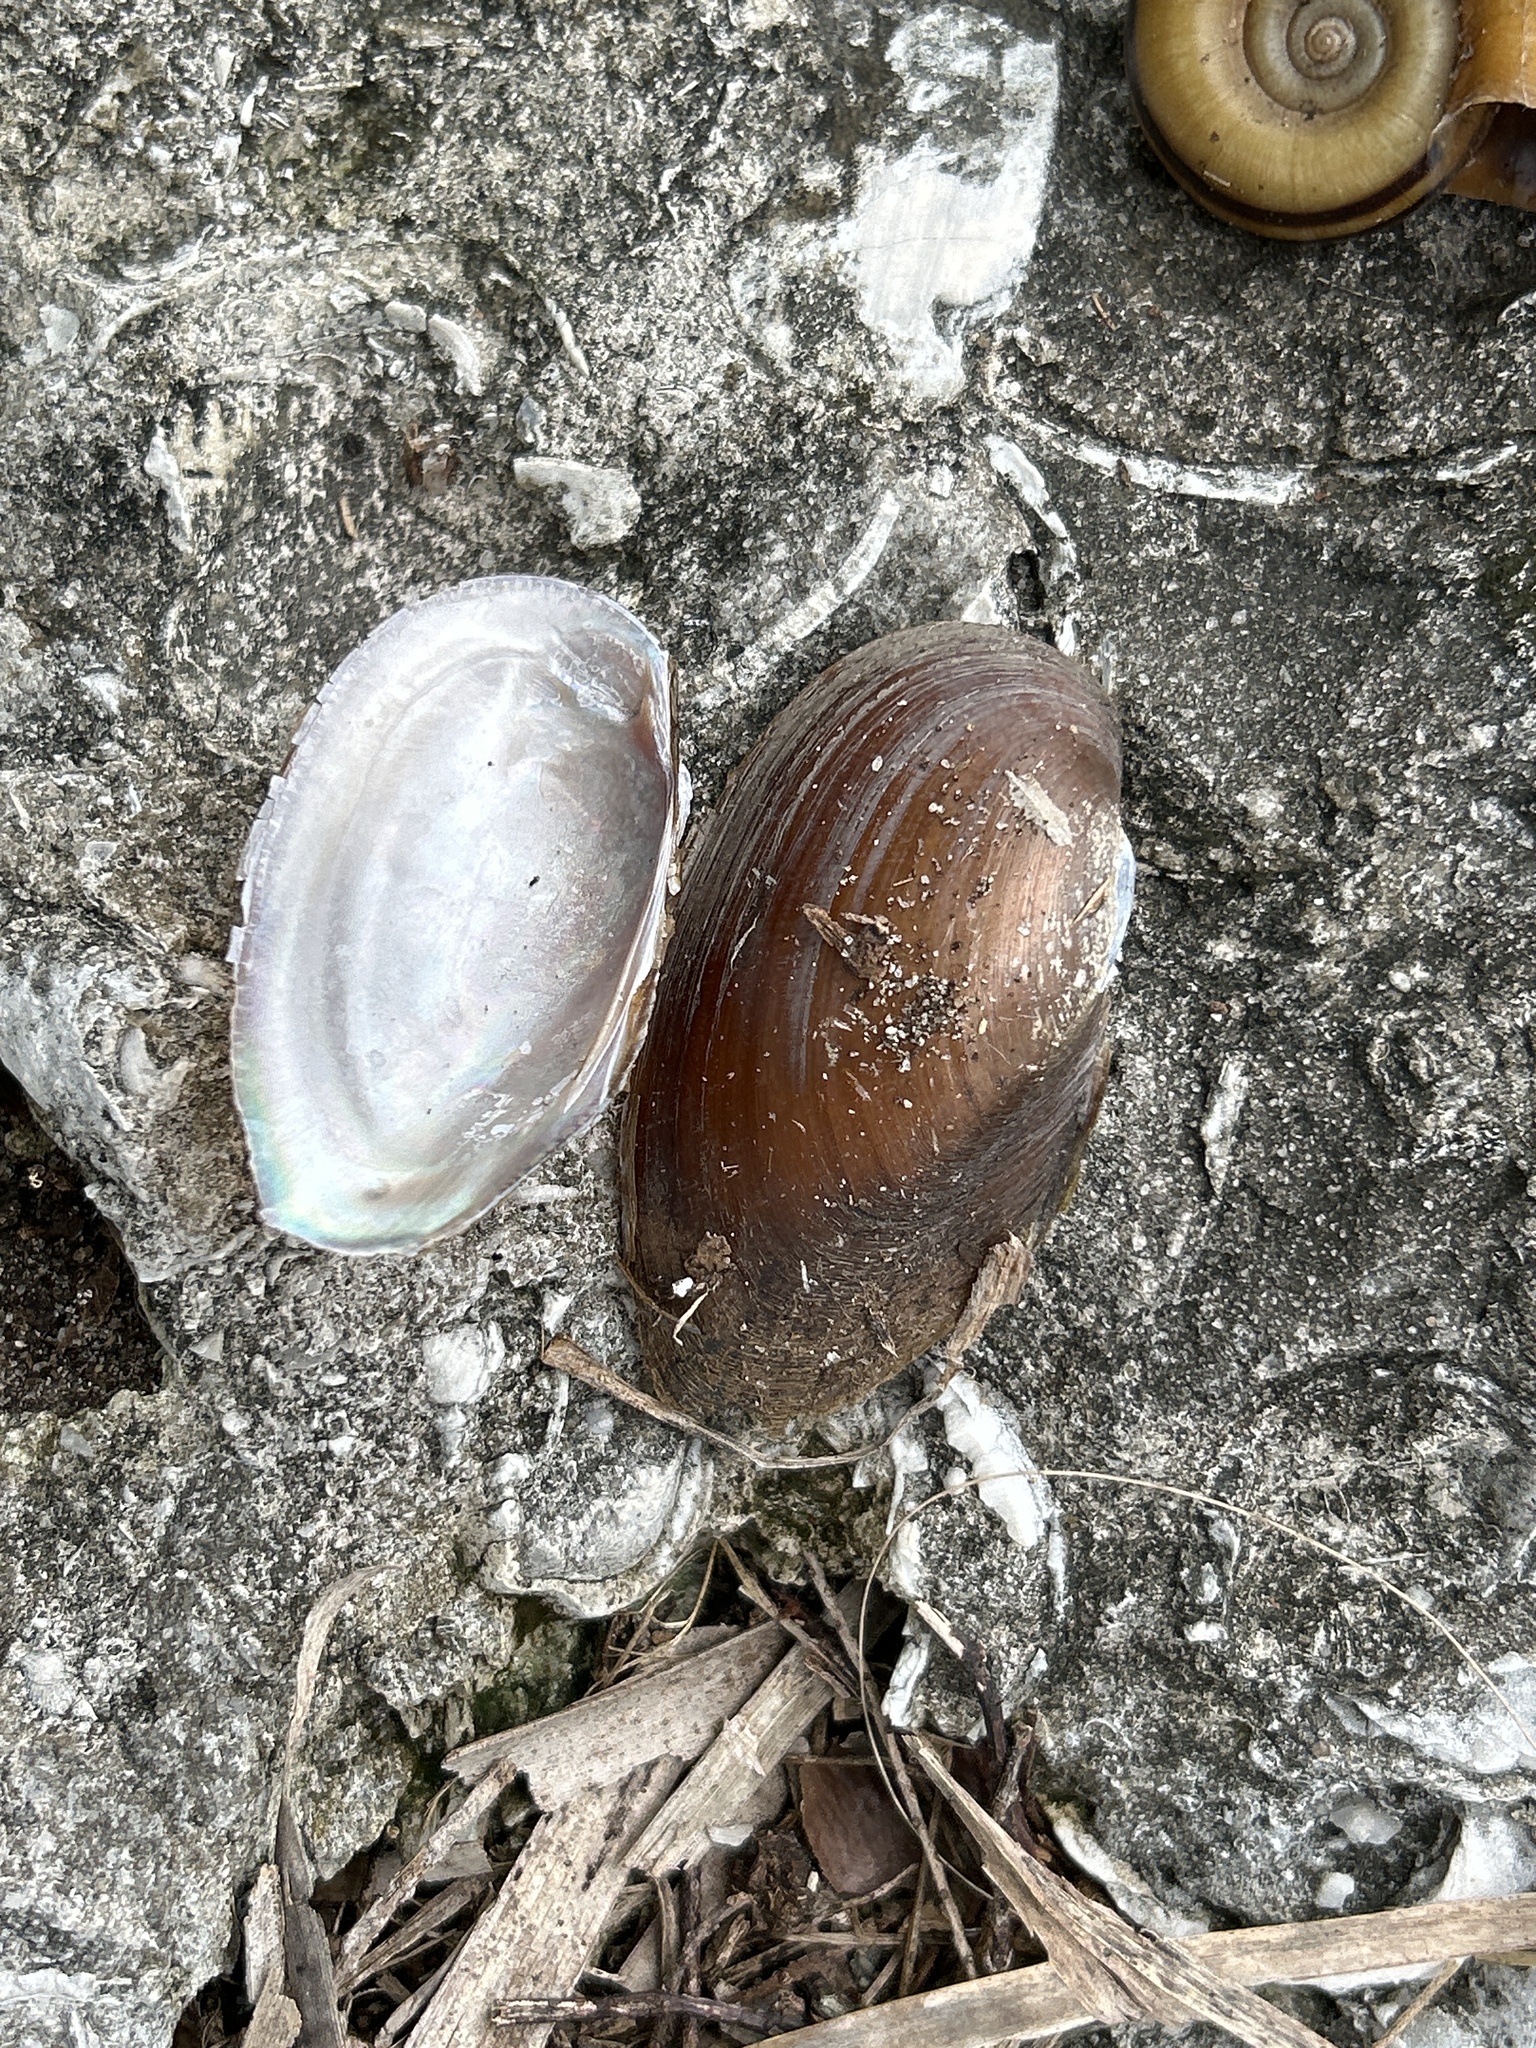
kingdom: Animalia
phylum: Mollusca
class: Bivalvia
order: Unionida
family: Unionidae
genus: Elliptio
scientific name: Elliptio jayensis
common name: Florida spike
